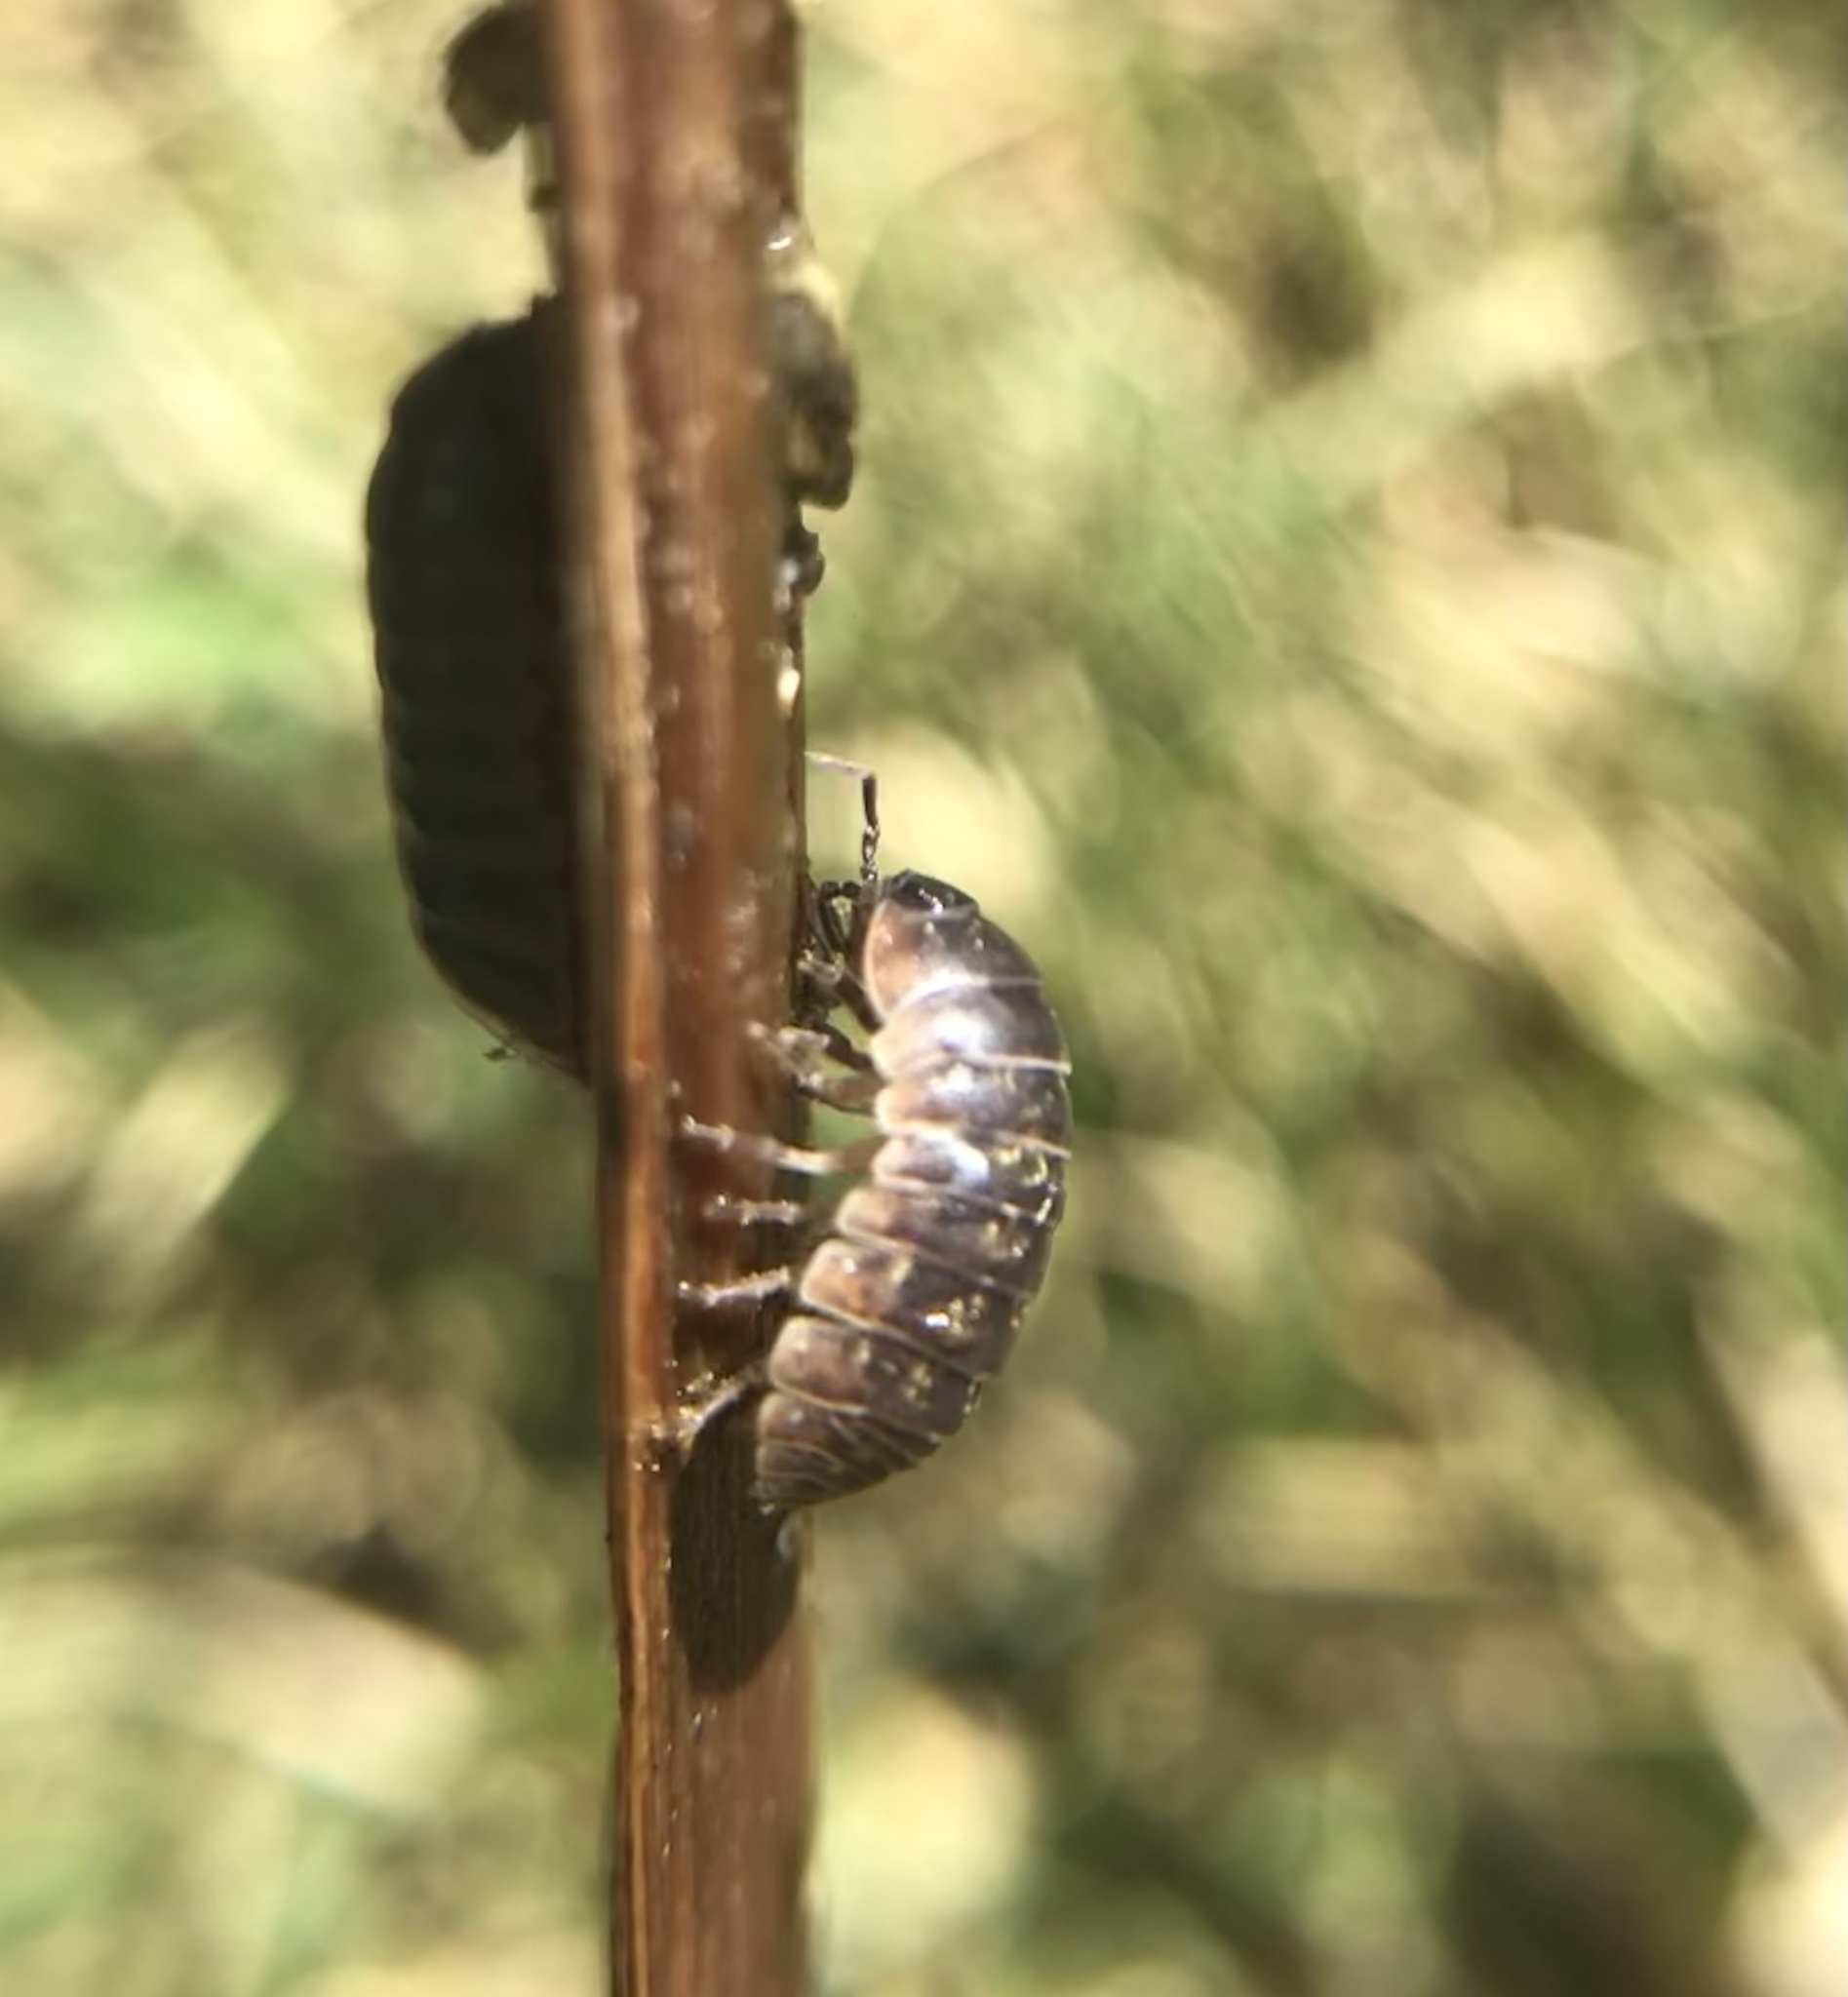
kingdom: Animalia
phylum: Arthropoda
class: Malacostraca
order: Isopoda
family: Armadillidiidae
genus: Armadillidium
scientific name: Armadillidium vulgare
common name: Common pill woodlouse
